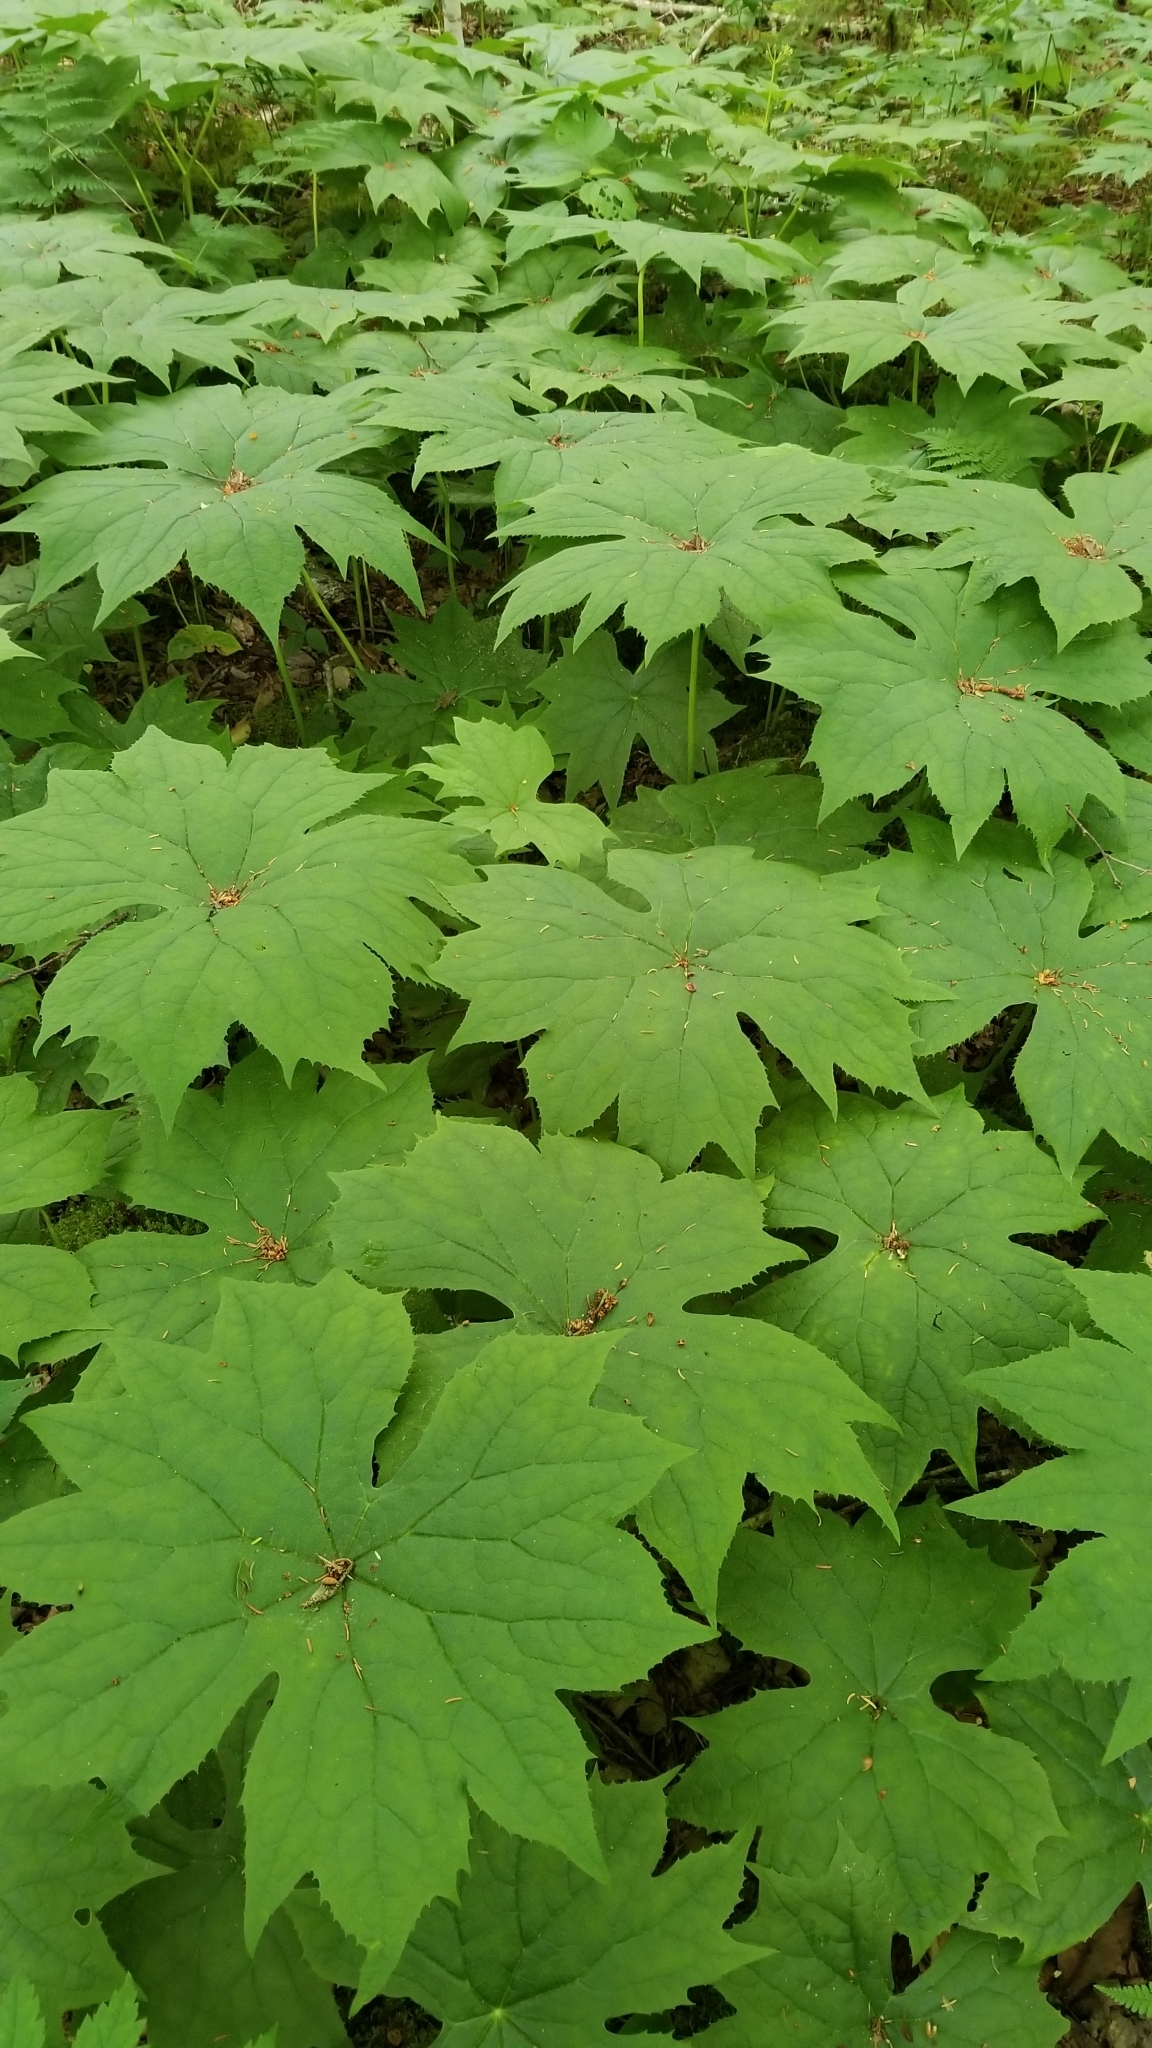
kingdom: Plantae
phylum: Tracheophyta
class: Magnoliopsida
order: Ranunculales
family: Berberidaceae
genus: Diphylleia
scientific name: Diphylleia cymosa
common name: Umbrella-leaf
